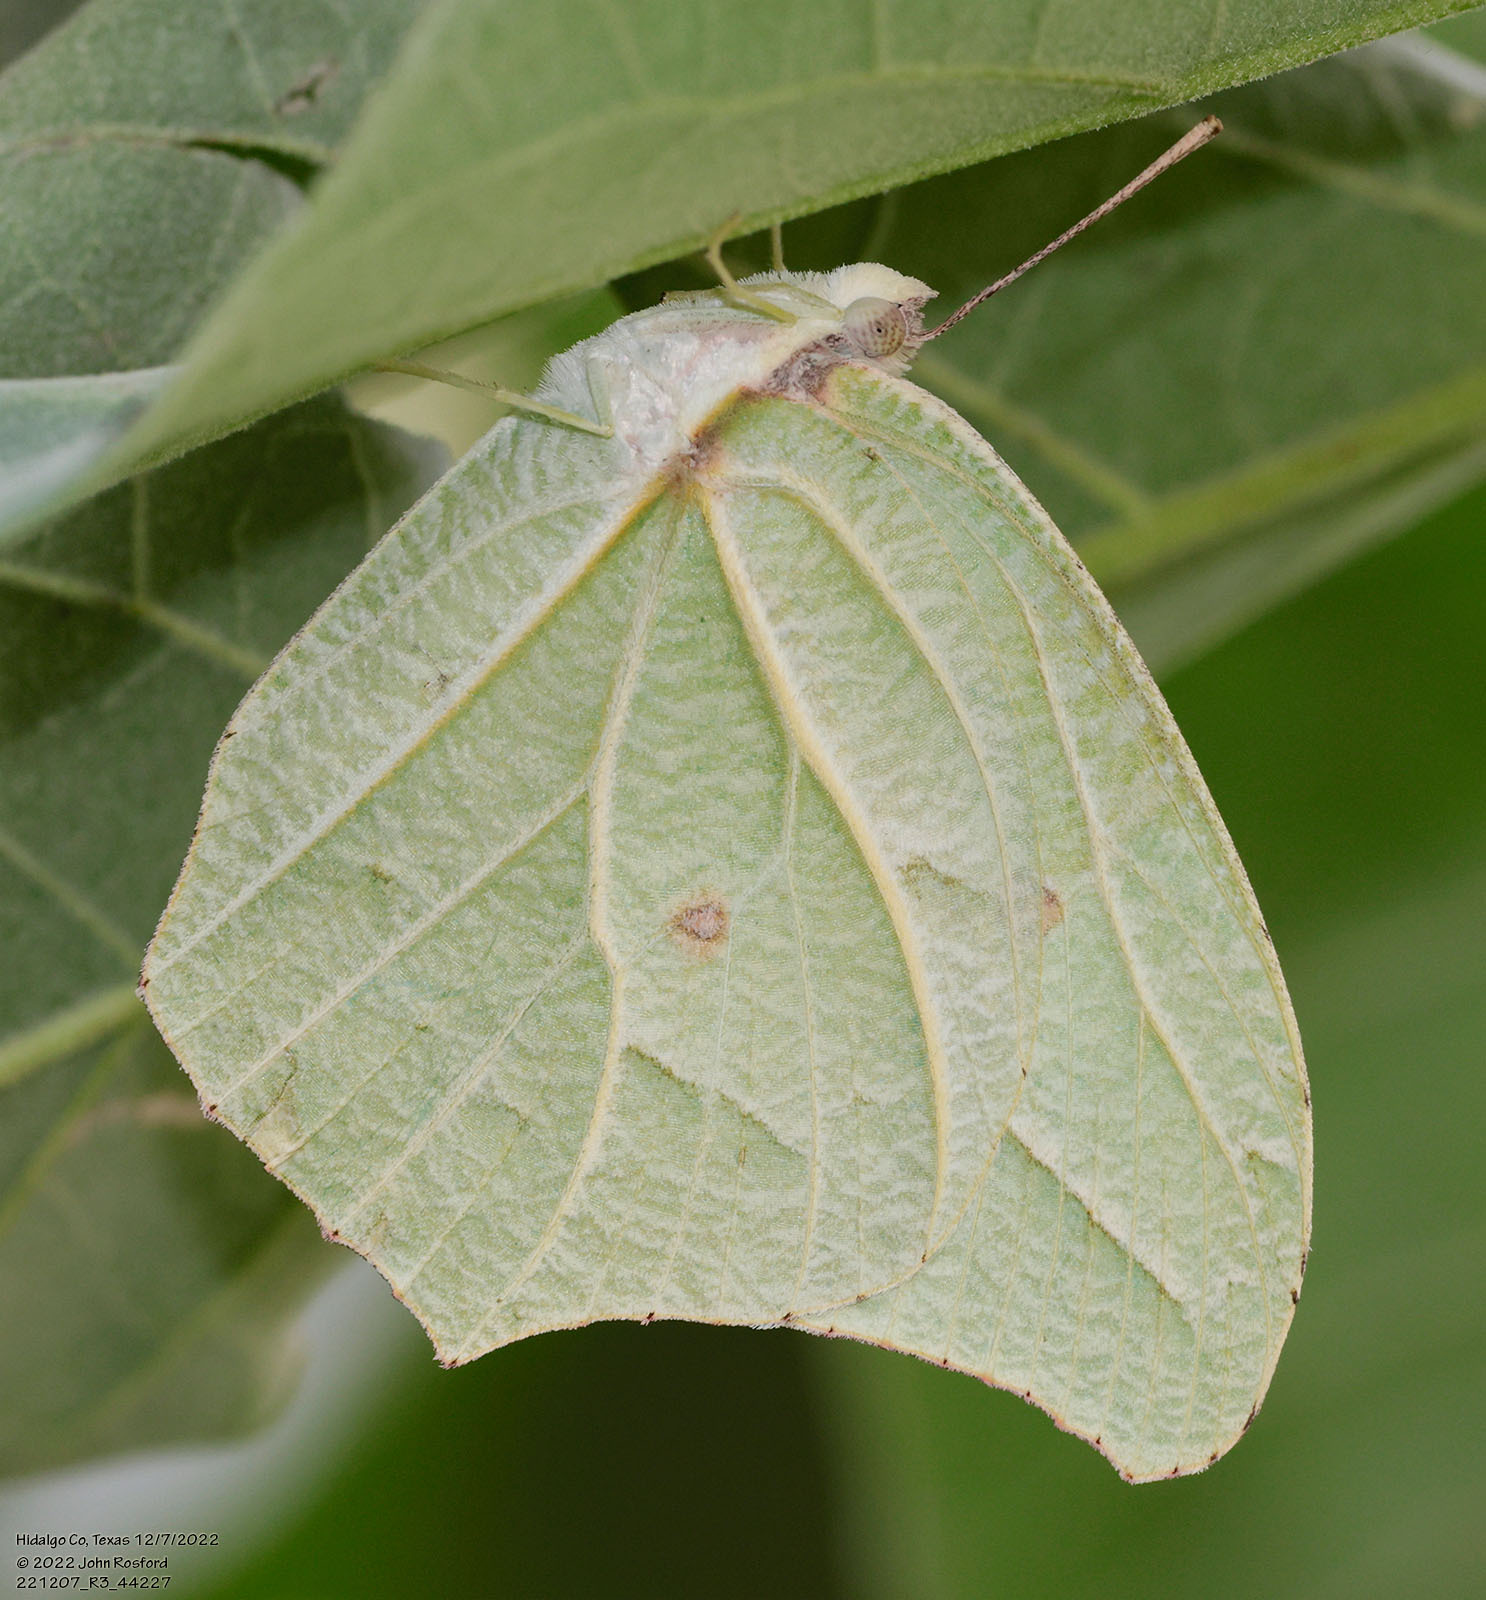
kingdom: Animalia
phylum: Arthropoda
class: Insecta
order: Lepidoptera
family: Pieridae
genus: Anteos
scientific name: Anteos clorinde
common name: White angled sulphur
